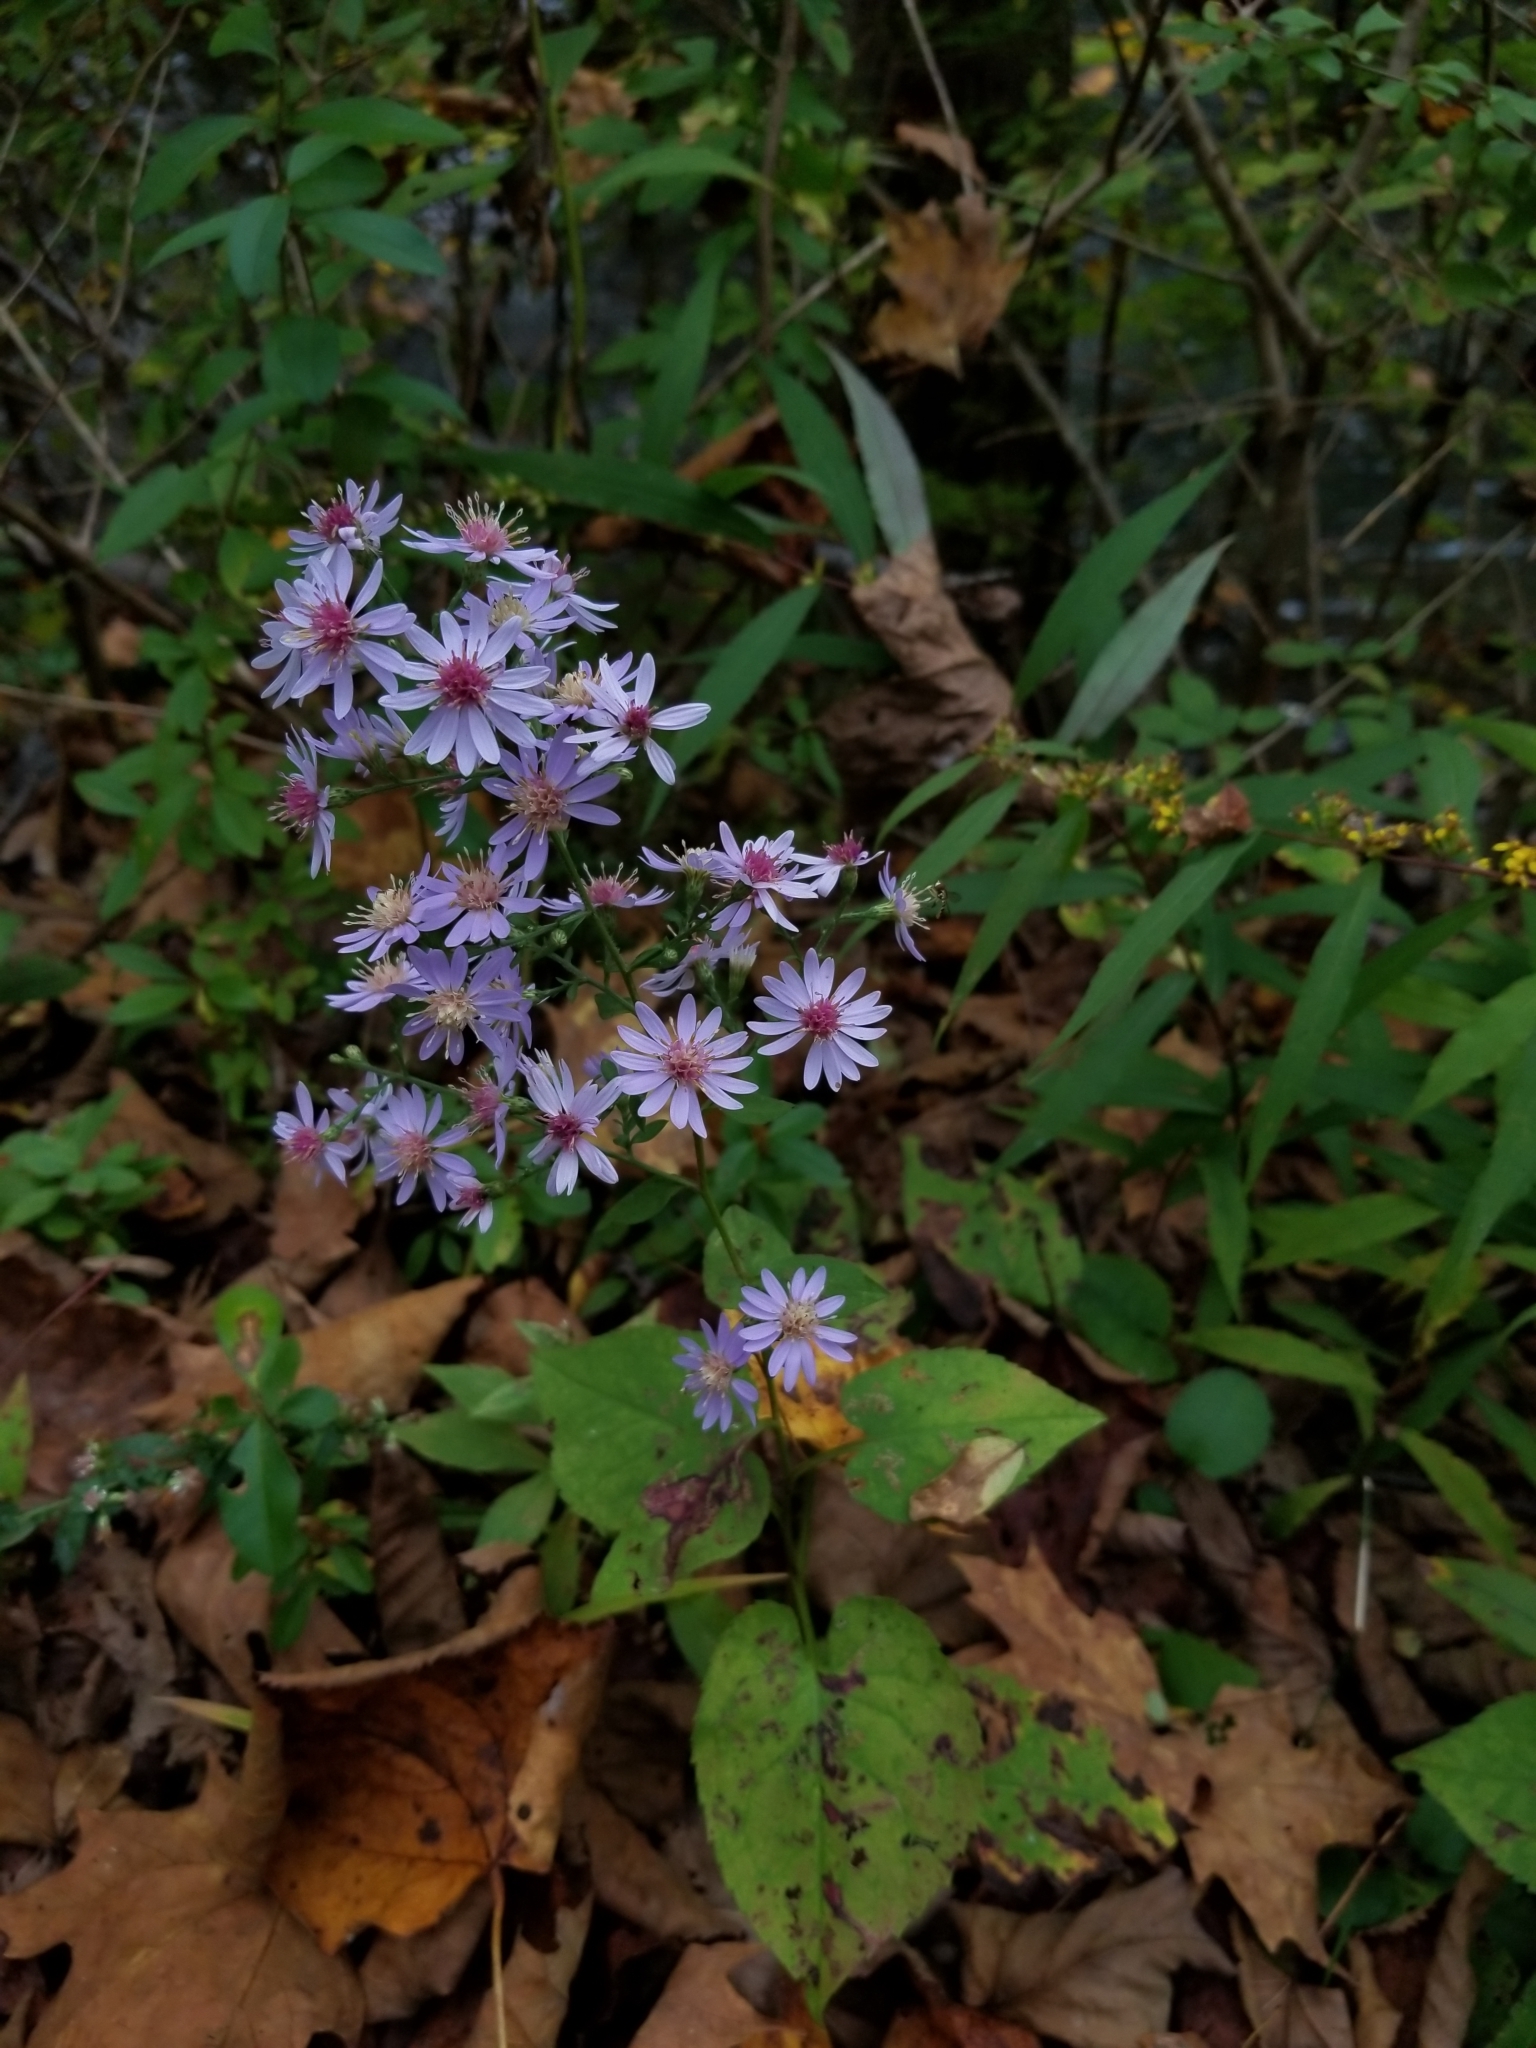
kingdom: Plantae
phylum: Tracheophyta
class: Magnoliopsida
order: Asterales
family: Asteraceae
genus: Solidago
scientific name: Solidago caesia
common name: Woodland goldenrod
